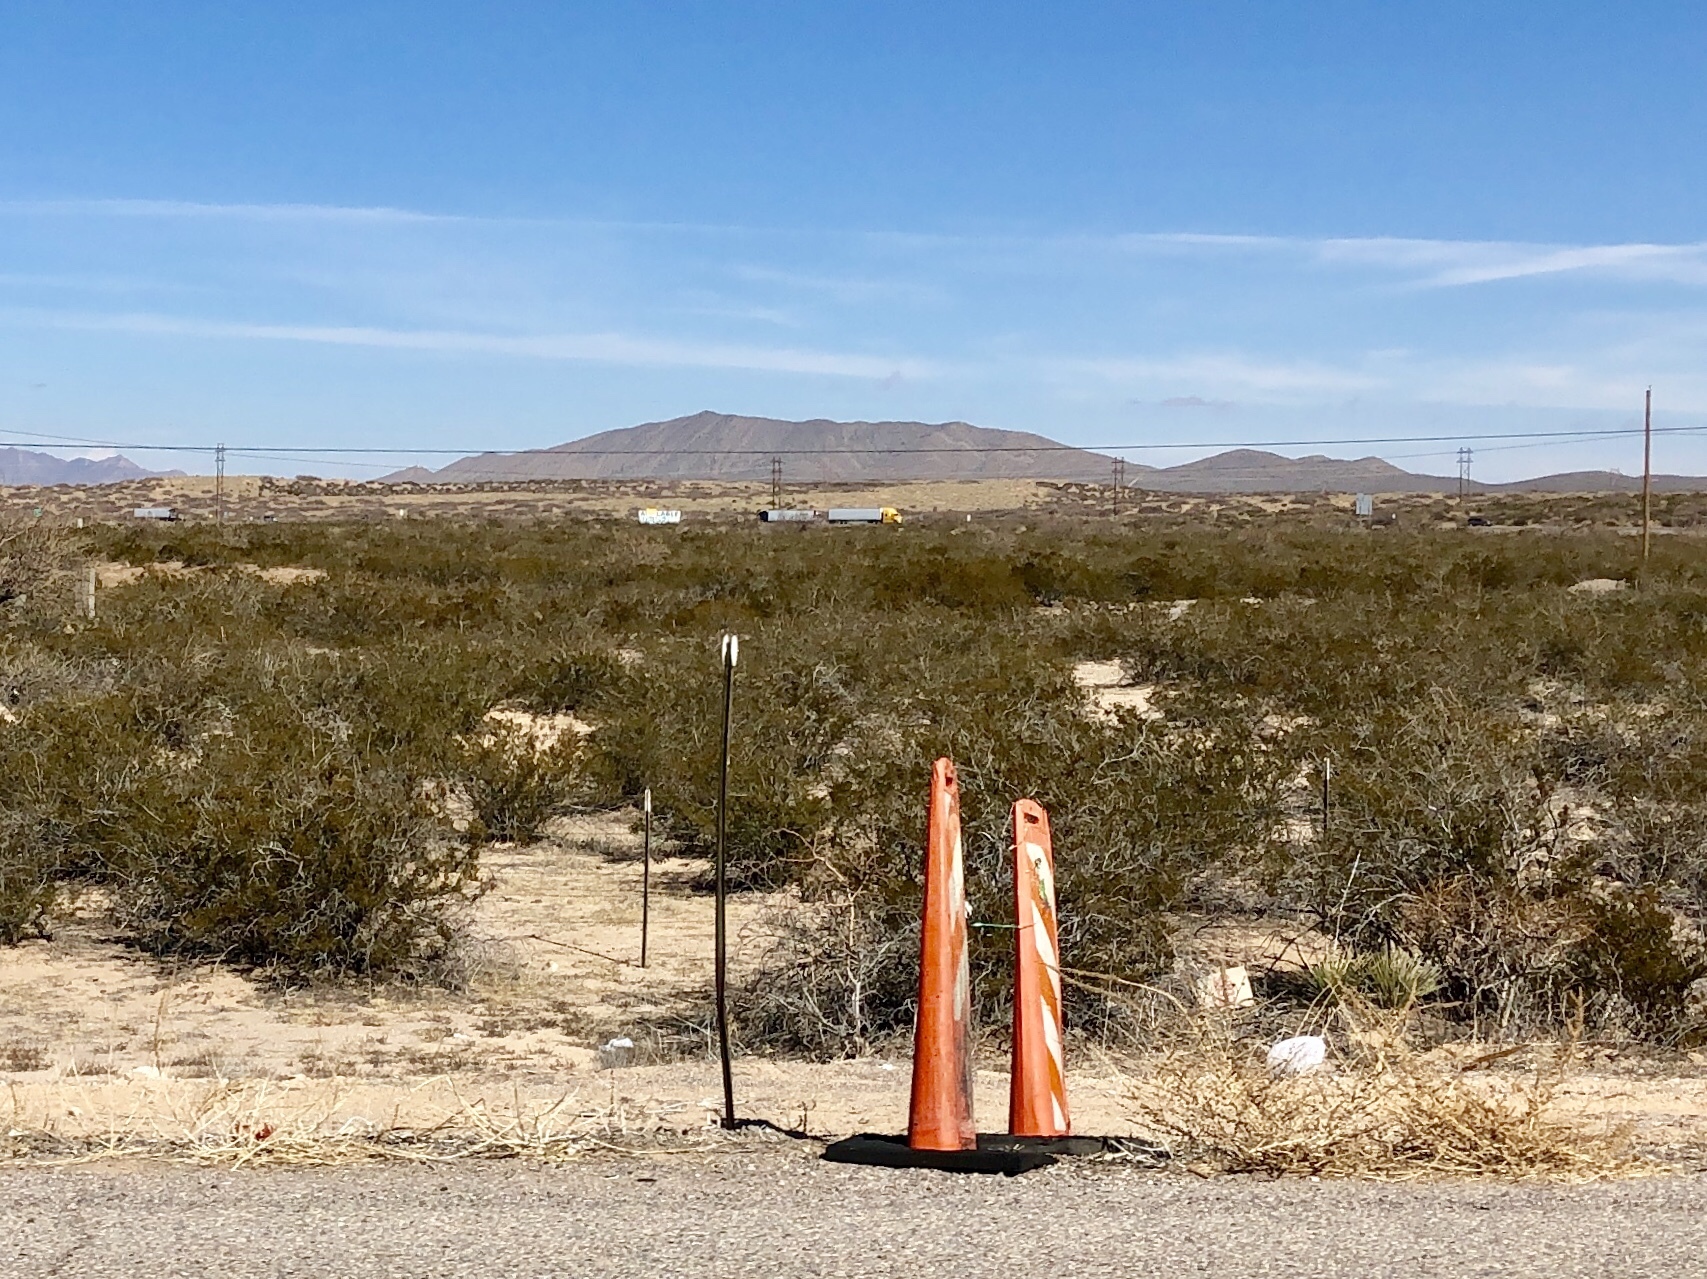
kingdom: Plantae
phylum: Tracheophyta
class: Magnoliopsida
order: Zygophyllales
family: Zygophyllaceae
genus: Larrea
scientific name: Larrea tridentata
